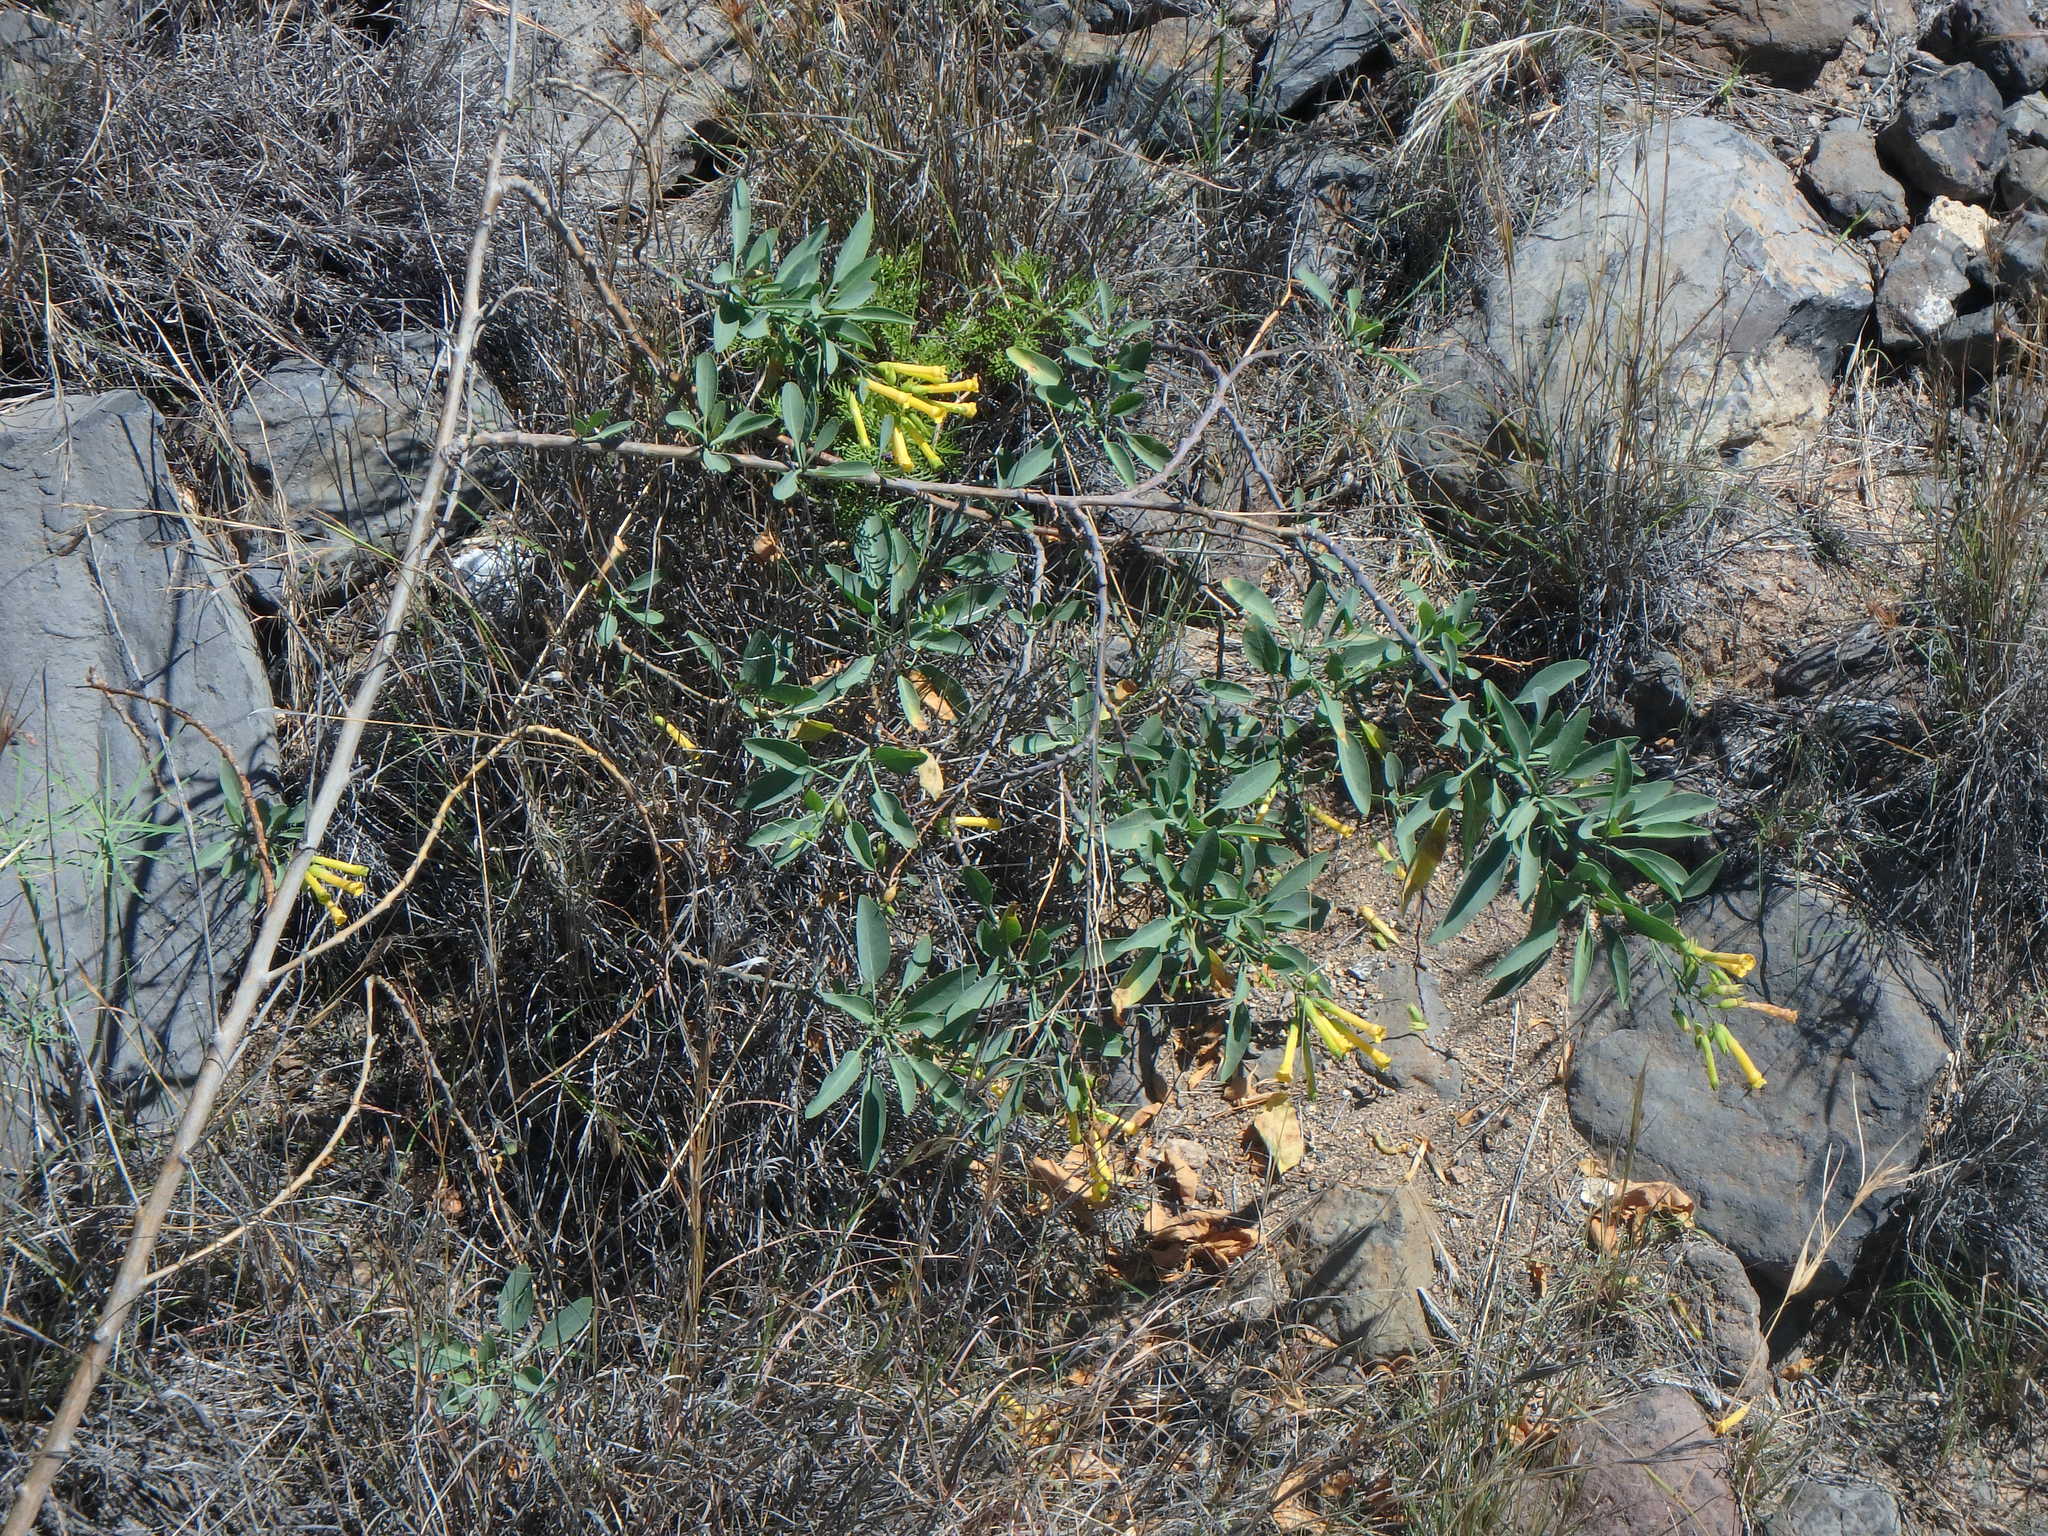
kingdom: Plantae
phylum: Tracheophyta
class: Magnoliopsida
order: Solanales
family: Solanaceae
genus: Nicotiana
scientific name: Nicotiana glauca
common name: Tree tobacco
